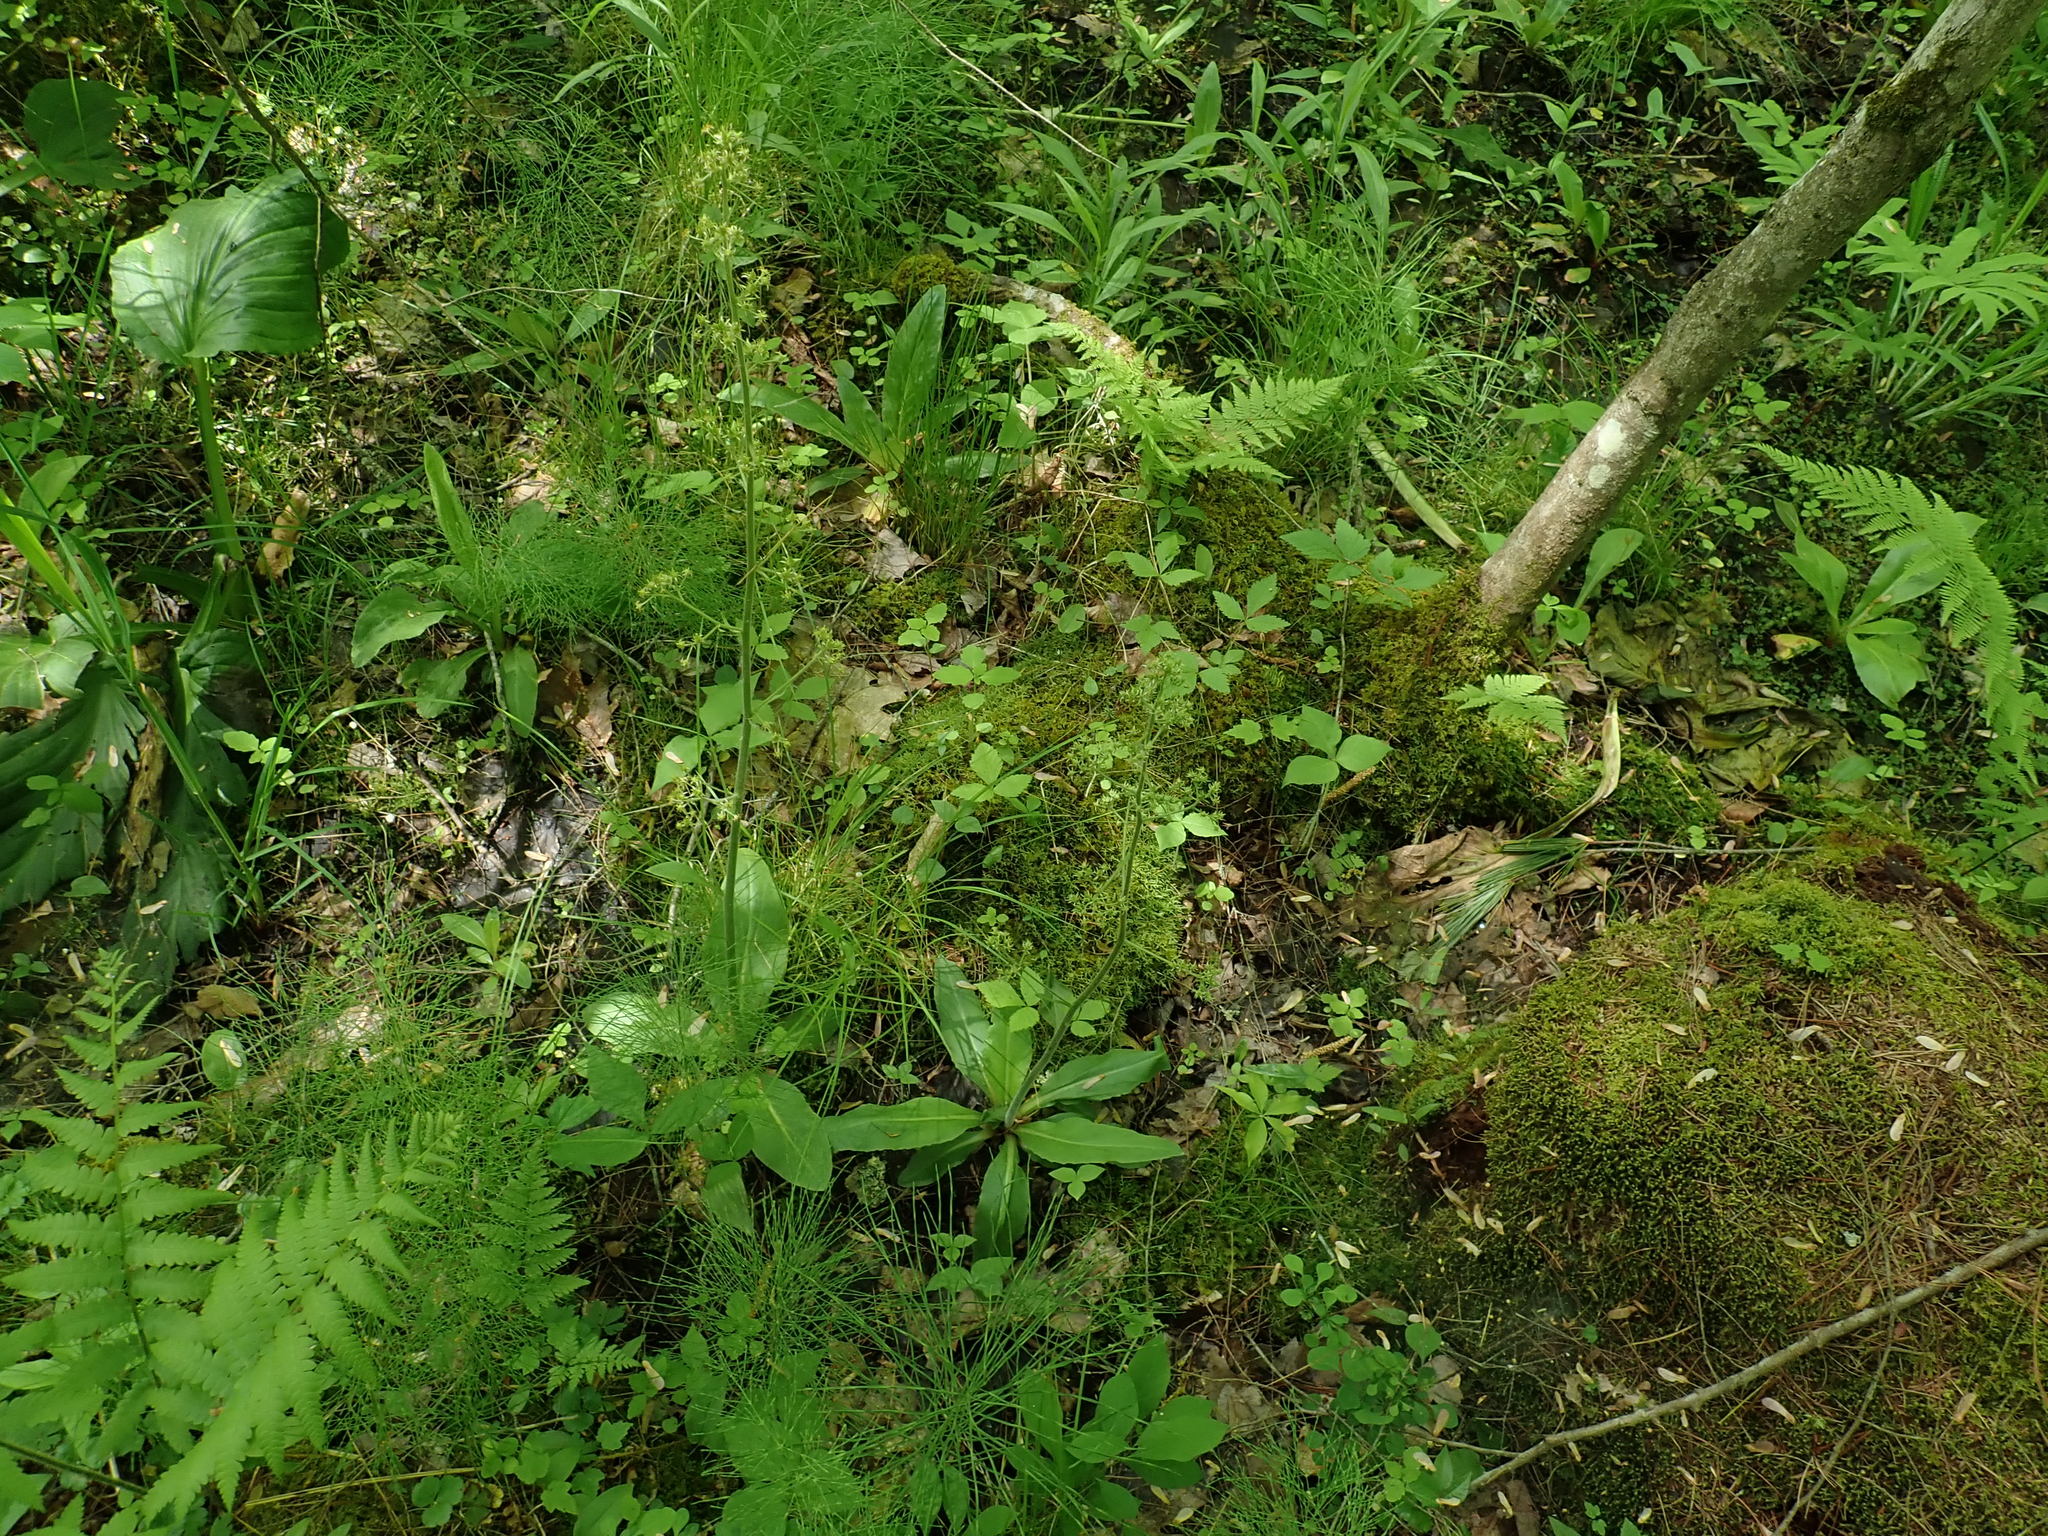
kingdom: Plantae
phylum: Tracheophyta
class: Magnoliopsida
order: Saxifragales
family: Saxifragaceae
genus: Micranthes
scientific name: Micranthes pensylvanica
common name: Marsh saxifrage
